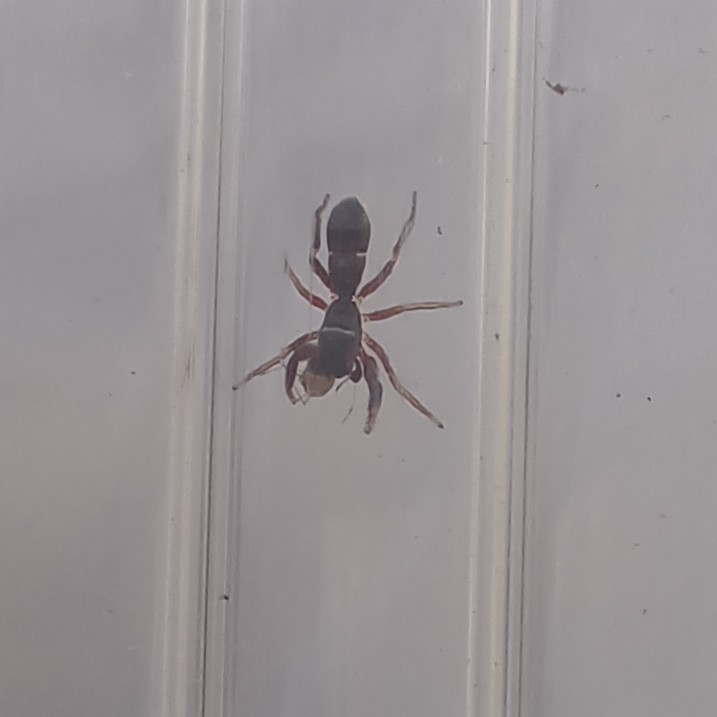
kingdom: Animalia
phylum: Arthropoda
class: Arachnida
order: Araneae
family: Salticidae
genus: Synageles
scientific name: Synageles venator
